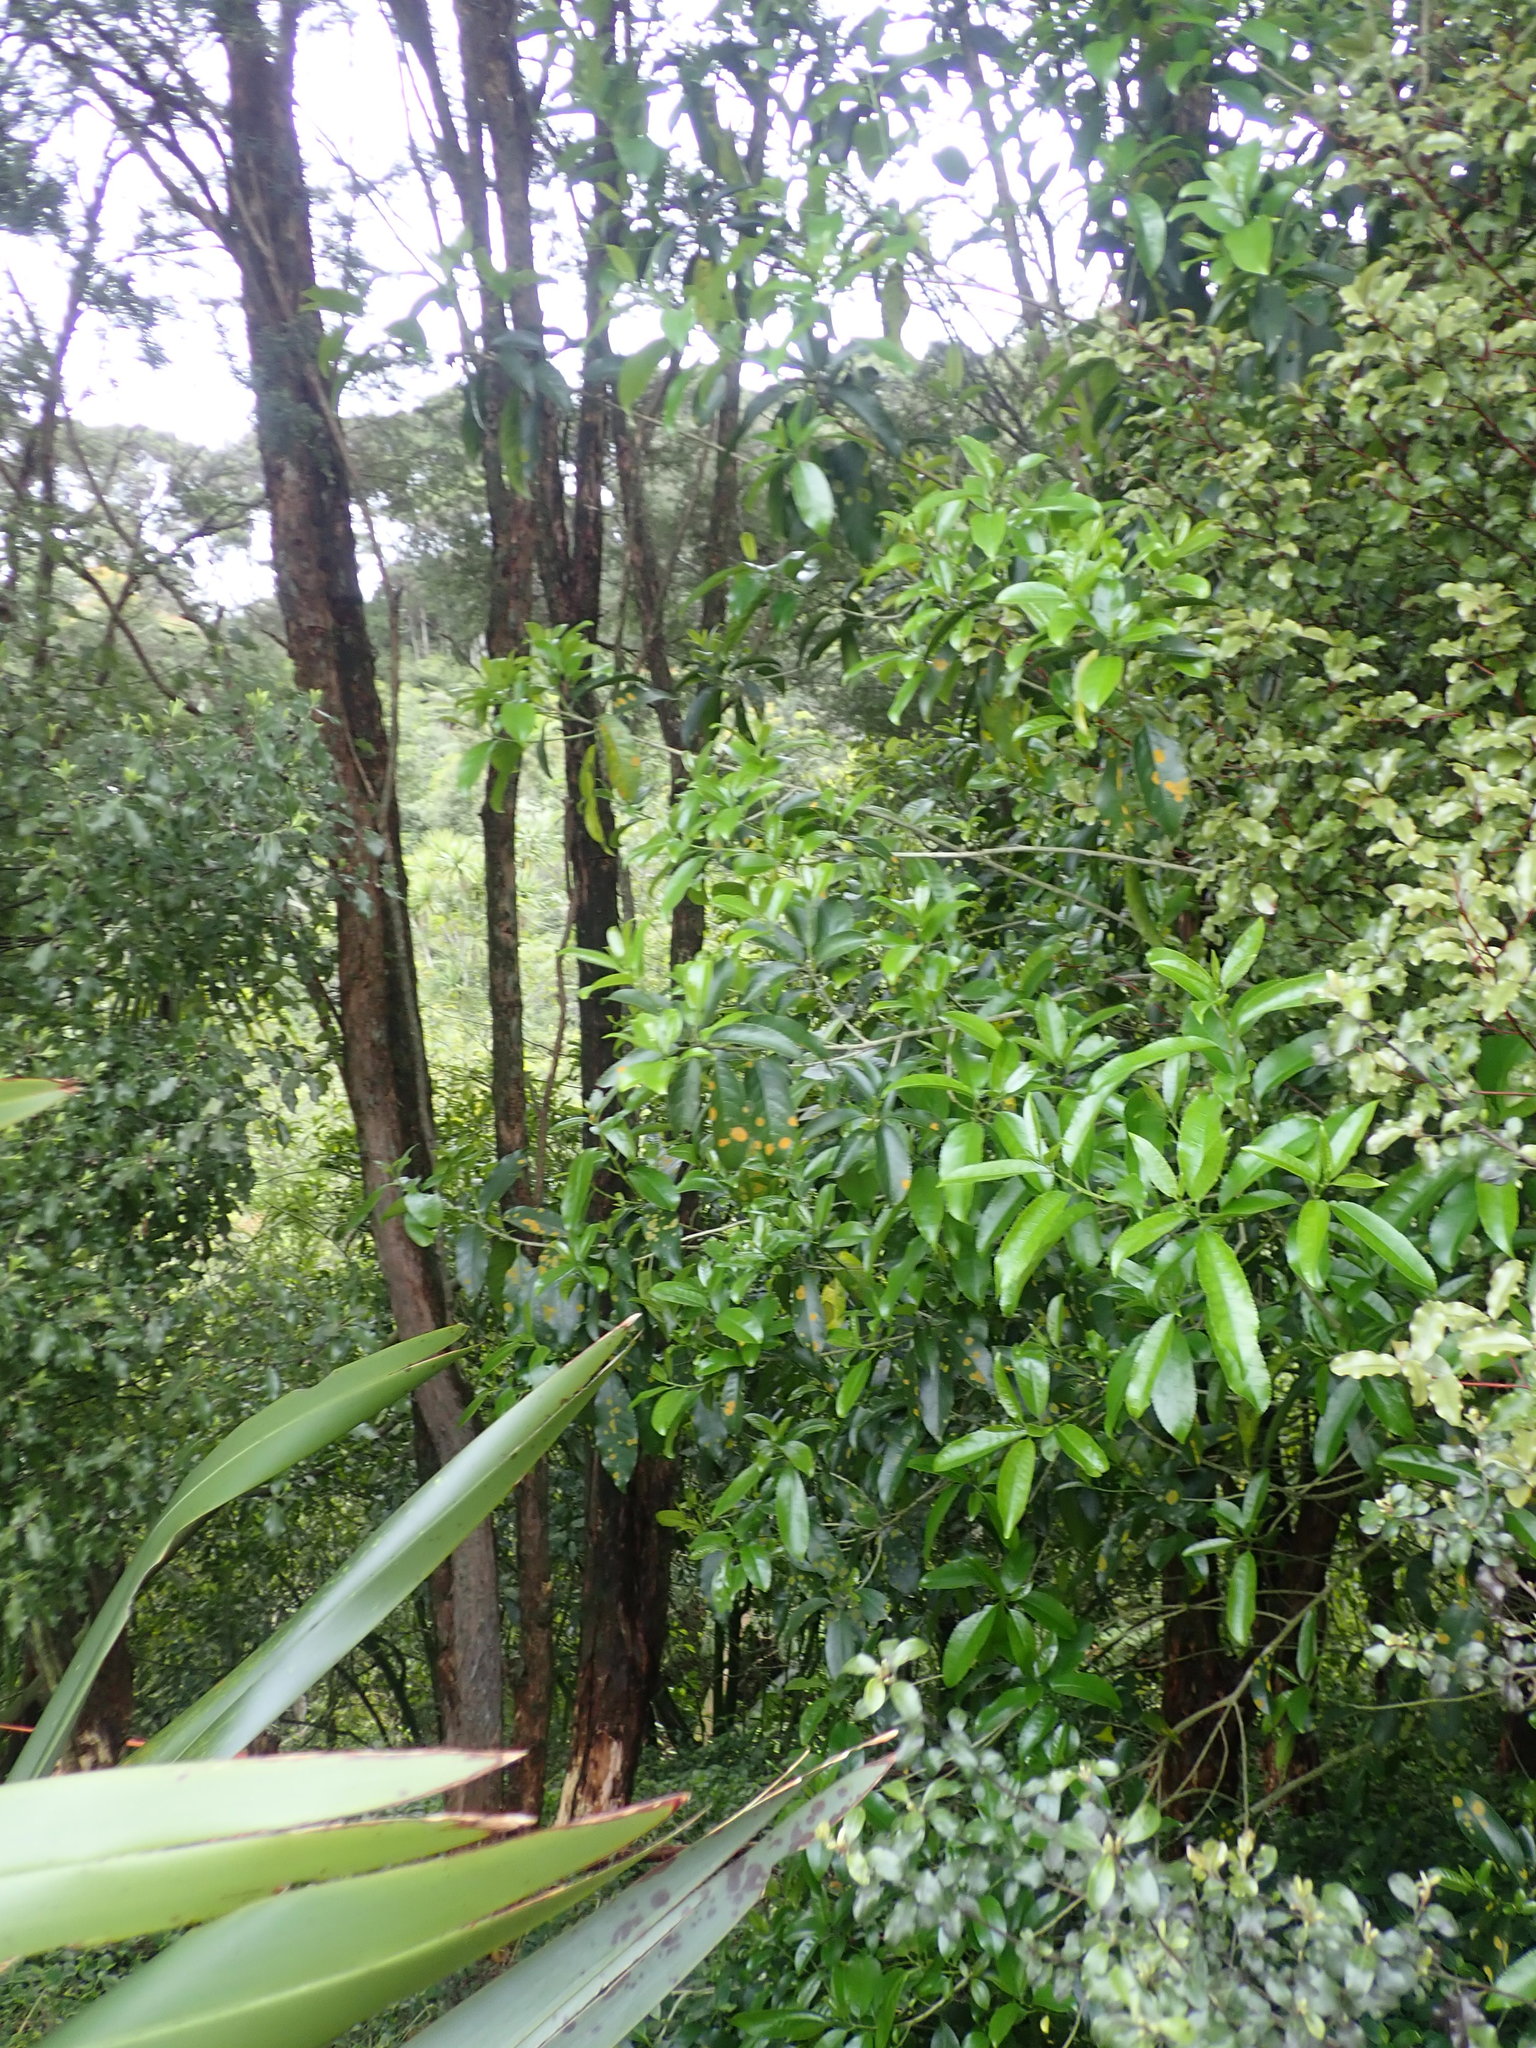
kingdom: Plantae
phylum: Tracheophyta
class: Magnoliopsida
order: Malpighiales
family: Violaceae
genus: Melicytus
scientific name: Melicytus ramiflorus
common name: Mahoe
